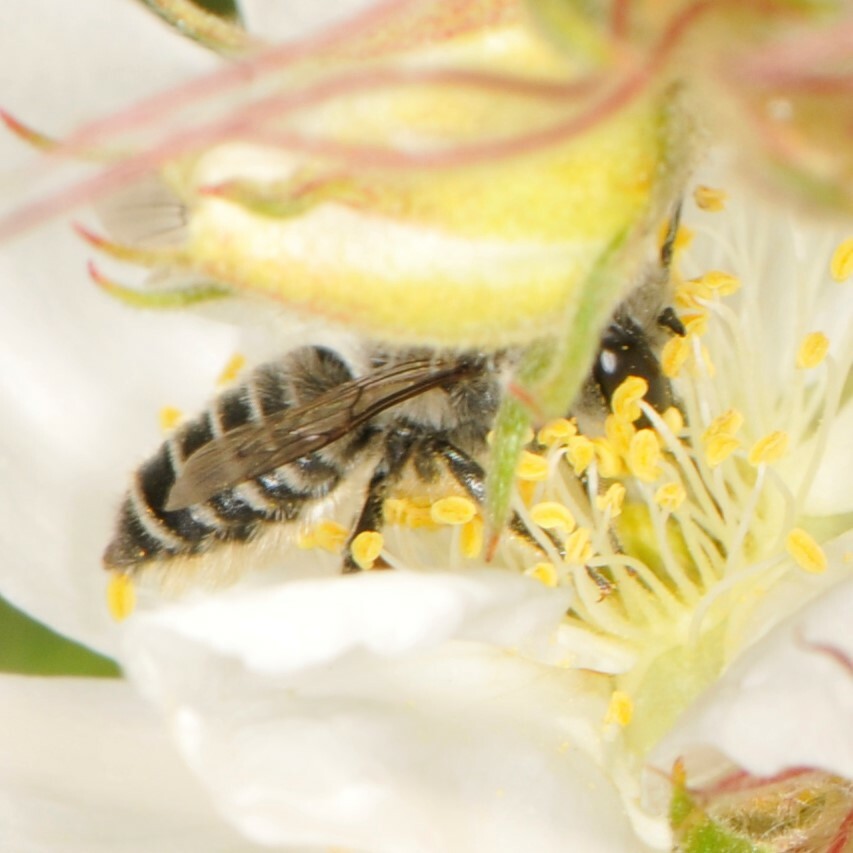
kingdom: Animalia
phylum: Arthropoda
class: Insecta
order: Hymenoptera
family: Megachilidae
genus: Megachile
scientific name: Megachile
